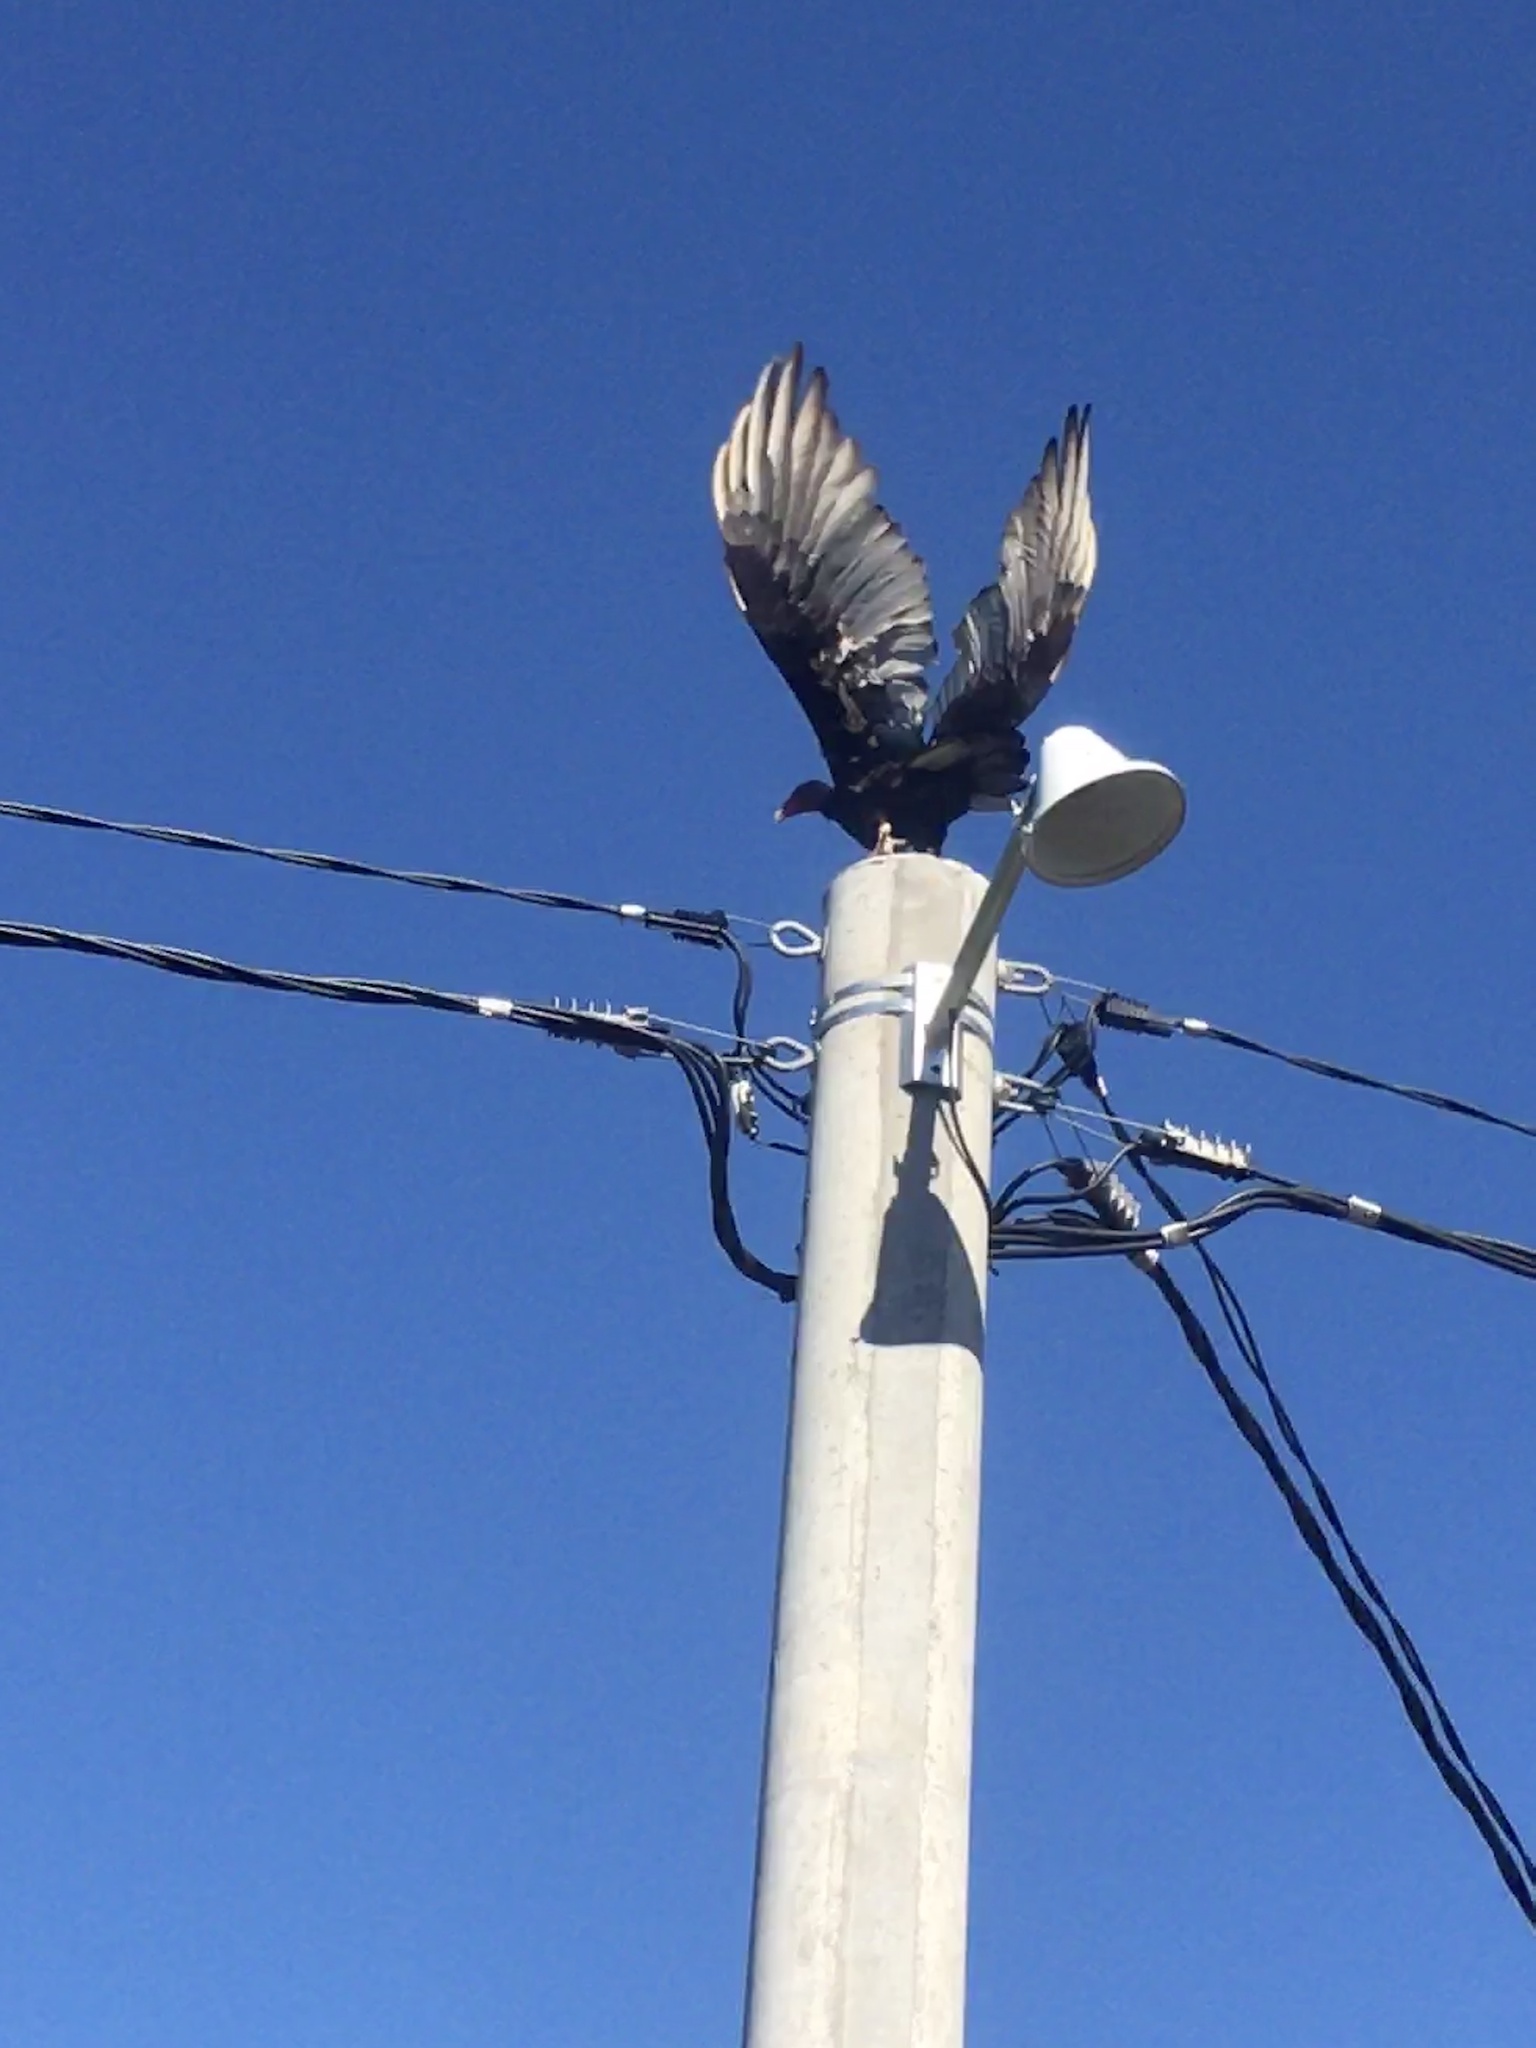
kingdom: Animalia
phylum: Chordata
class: Aves
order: Accipitriformes
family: Cathartidae
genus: Cathartes
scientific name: Cathartes aura
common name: Turkey vulture
